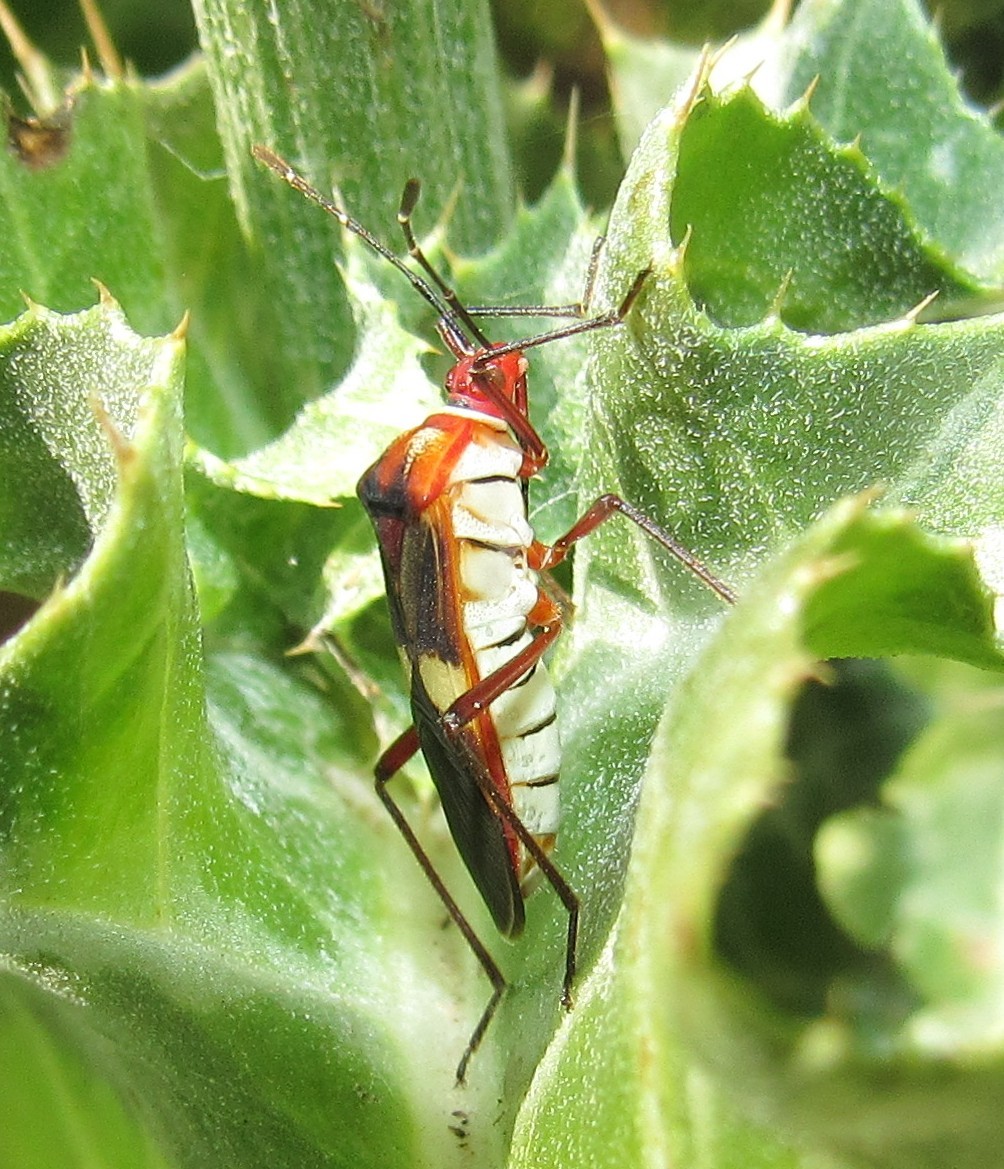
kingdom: Animalia
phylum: Arthropoda
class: Insecta
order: Hemiptera
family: Coreidae
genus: Hypselonotus
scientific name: Hypselonotus interruptus
